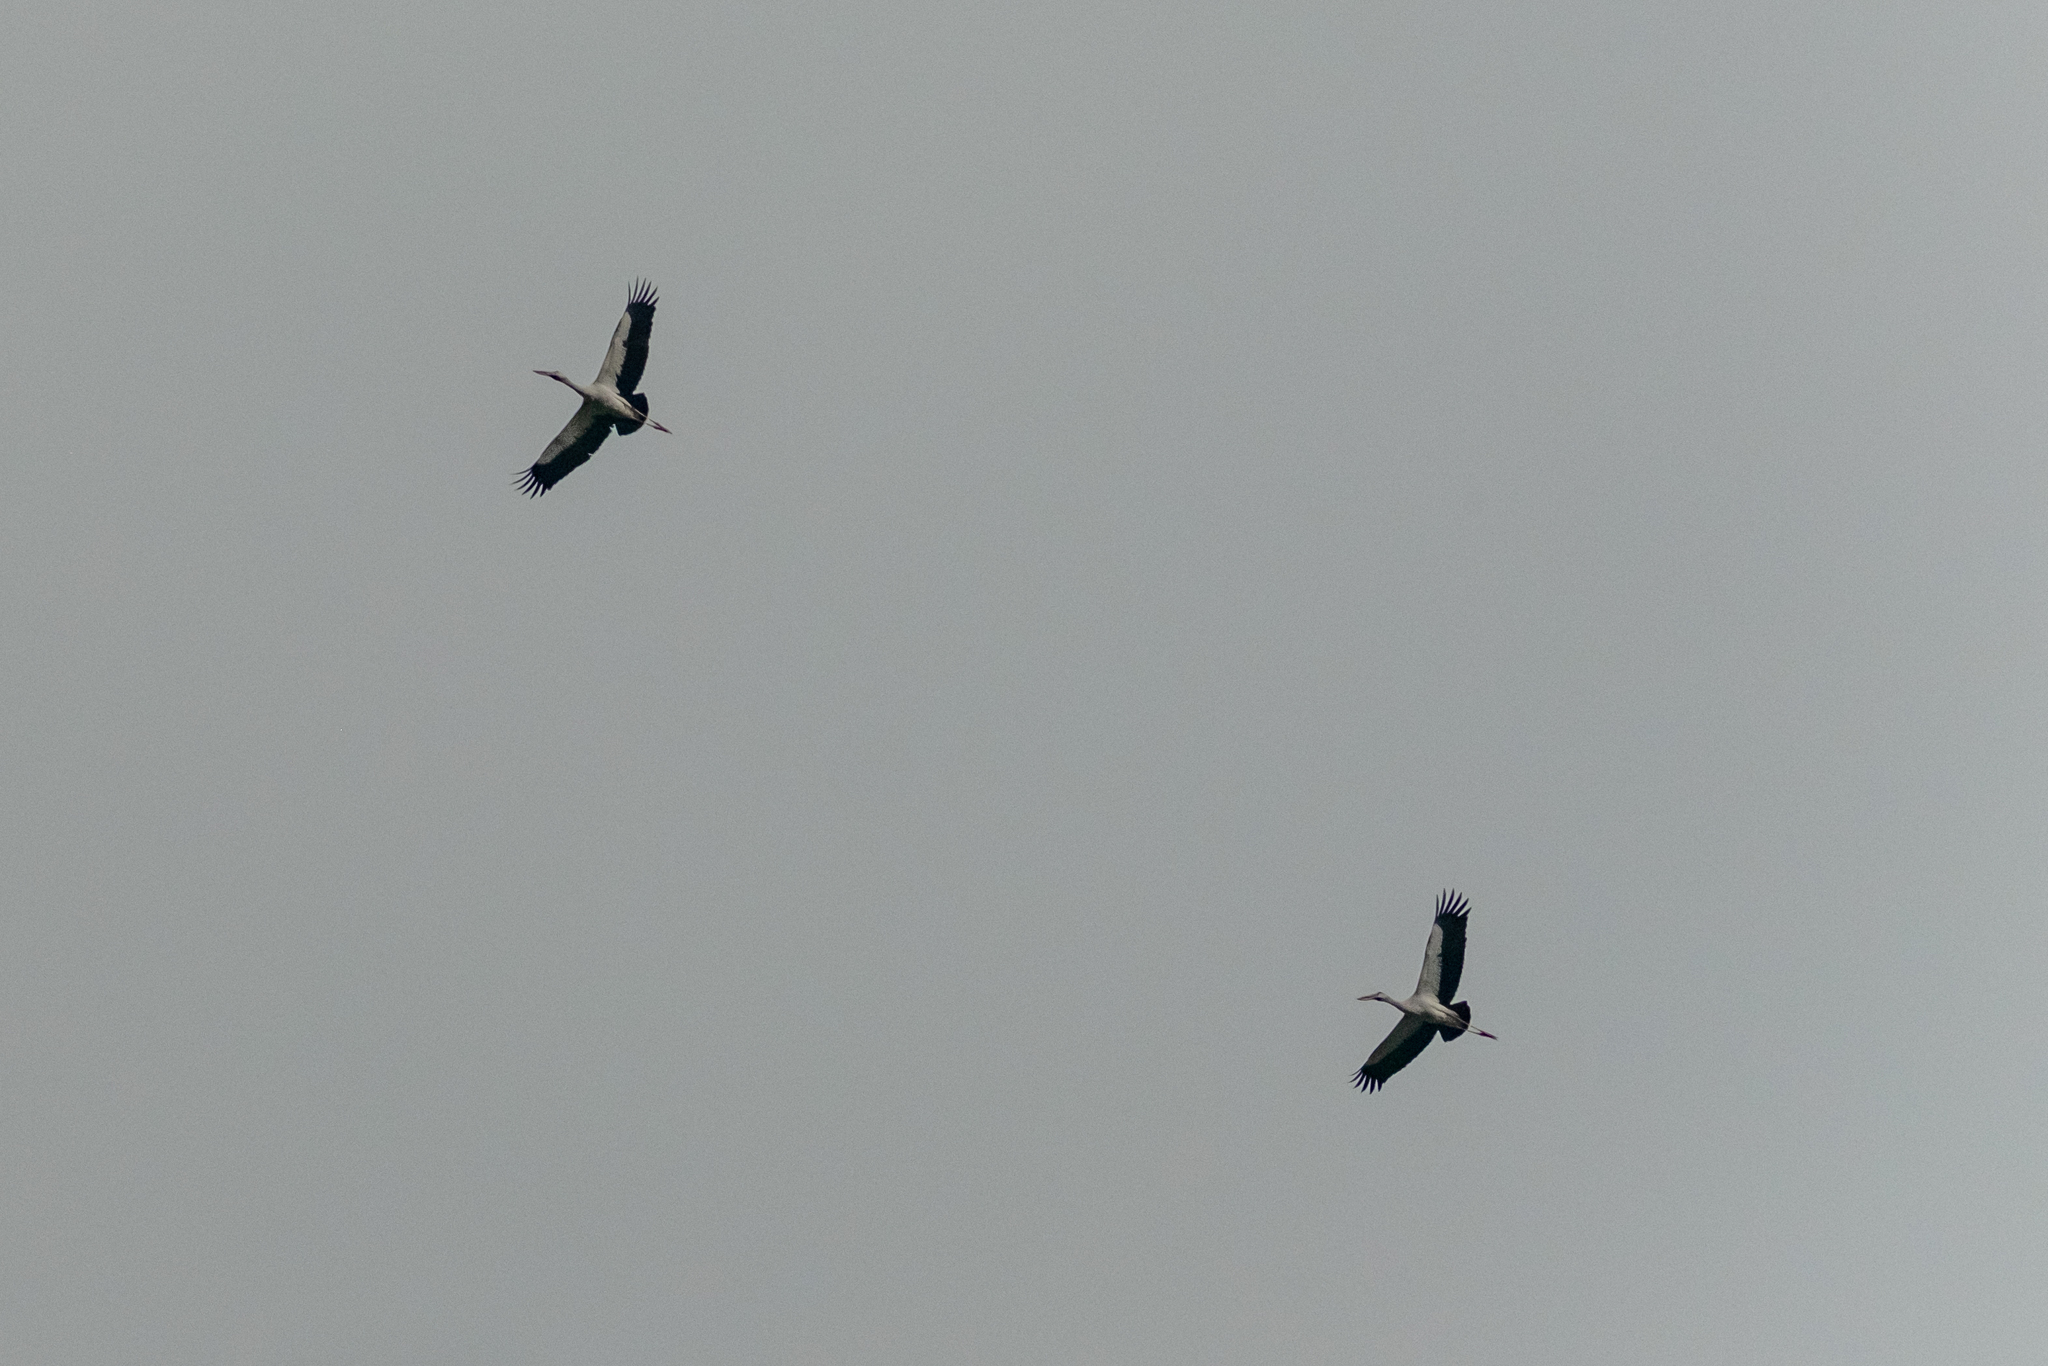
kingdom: Animalia
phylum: Chordata
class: Aves
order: Ciconiiformes
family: Ciconiidae
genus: Anastomus
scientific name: Anastomus oscitans
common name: Asian openbill
